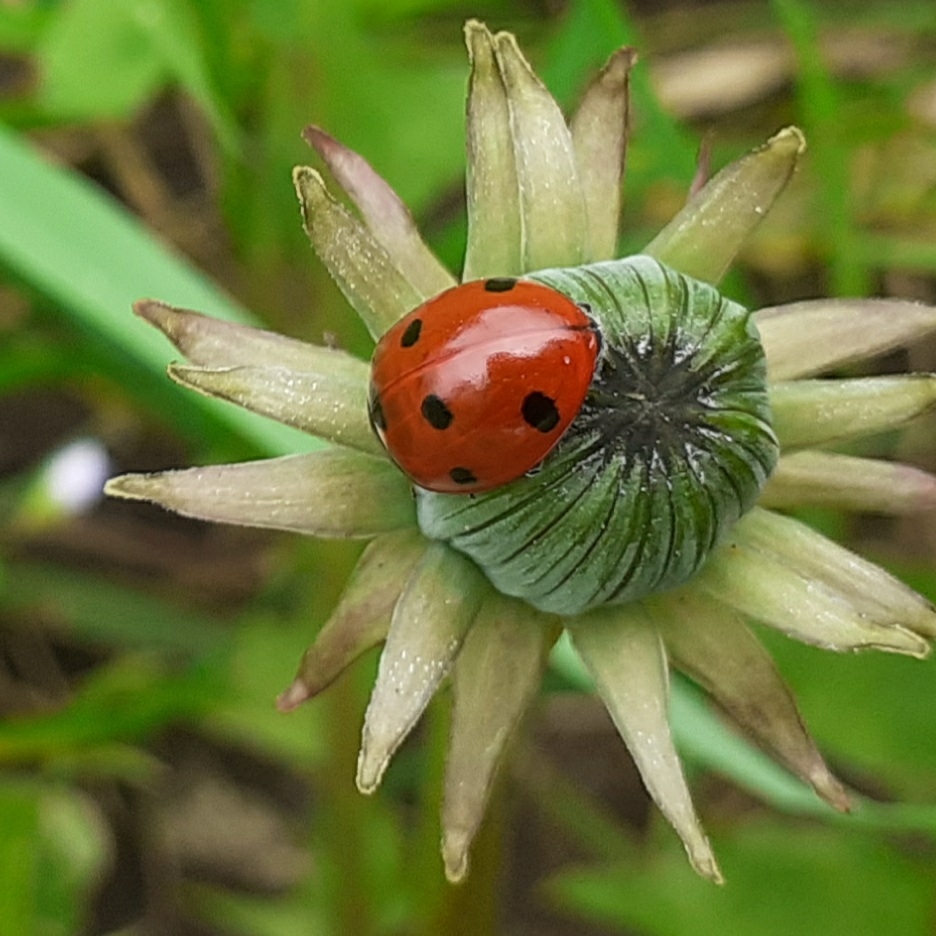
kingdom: Animalia
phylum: Arthropoda
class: Insecta
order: Coleoptera
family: Coccinellidae
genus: Coccinella
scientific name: Coccinella septempunctata
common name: Sevenspotted lady beetle
